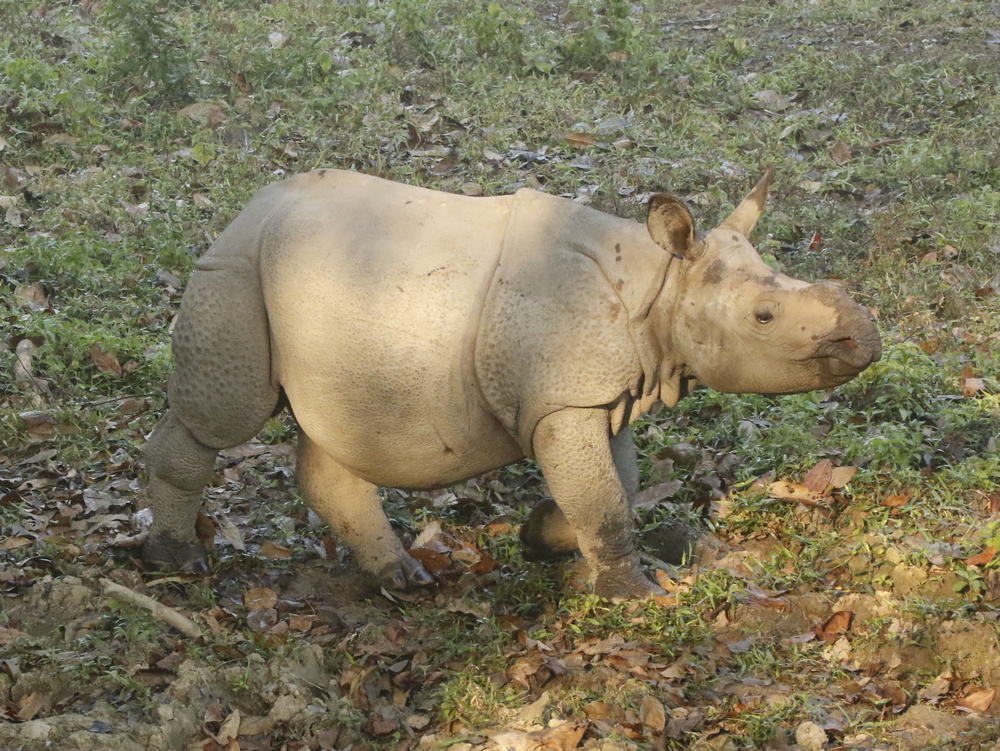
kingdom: Animalia
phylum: Chordata
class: Mammalia
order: Perissodactyla
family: Rhinocerotidae
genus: Rhinoceros
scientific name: Rhinoceros unicornis
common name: Indian rhinoceros
